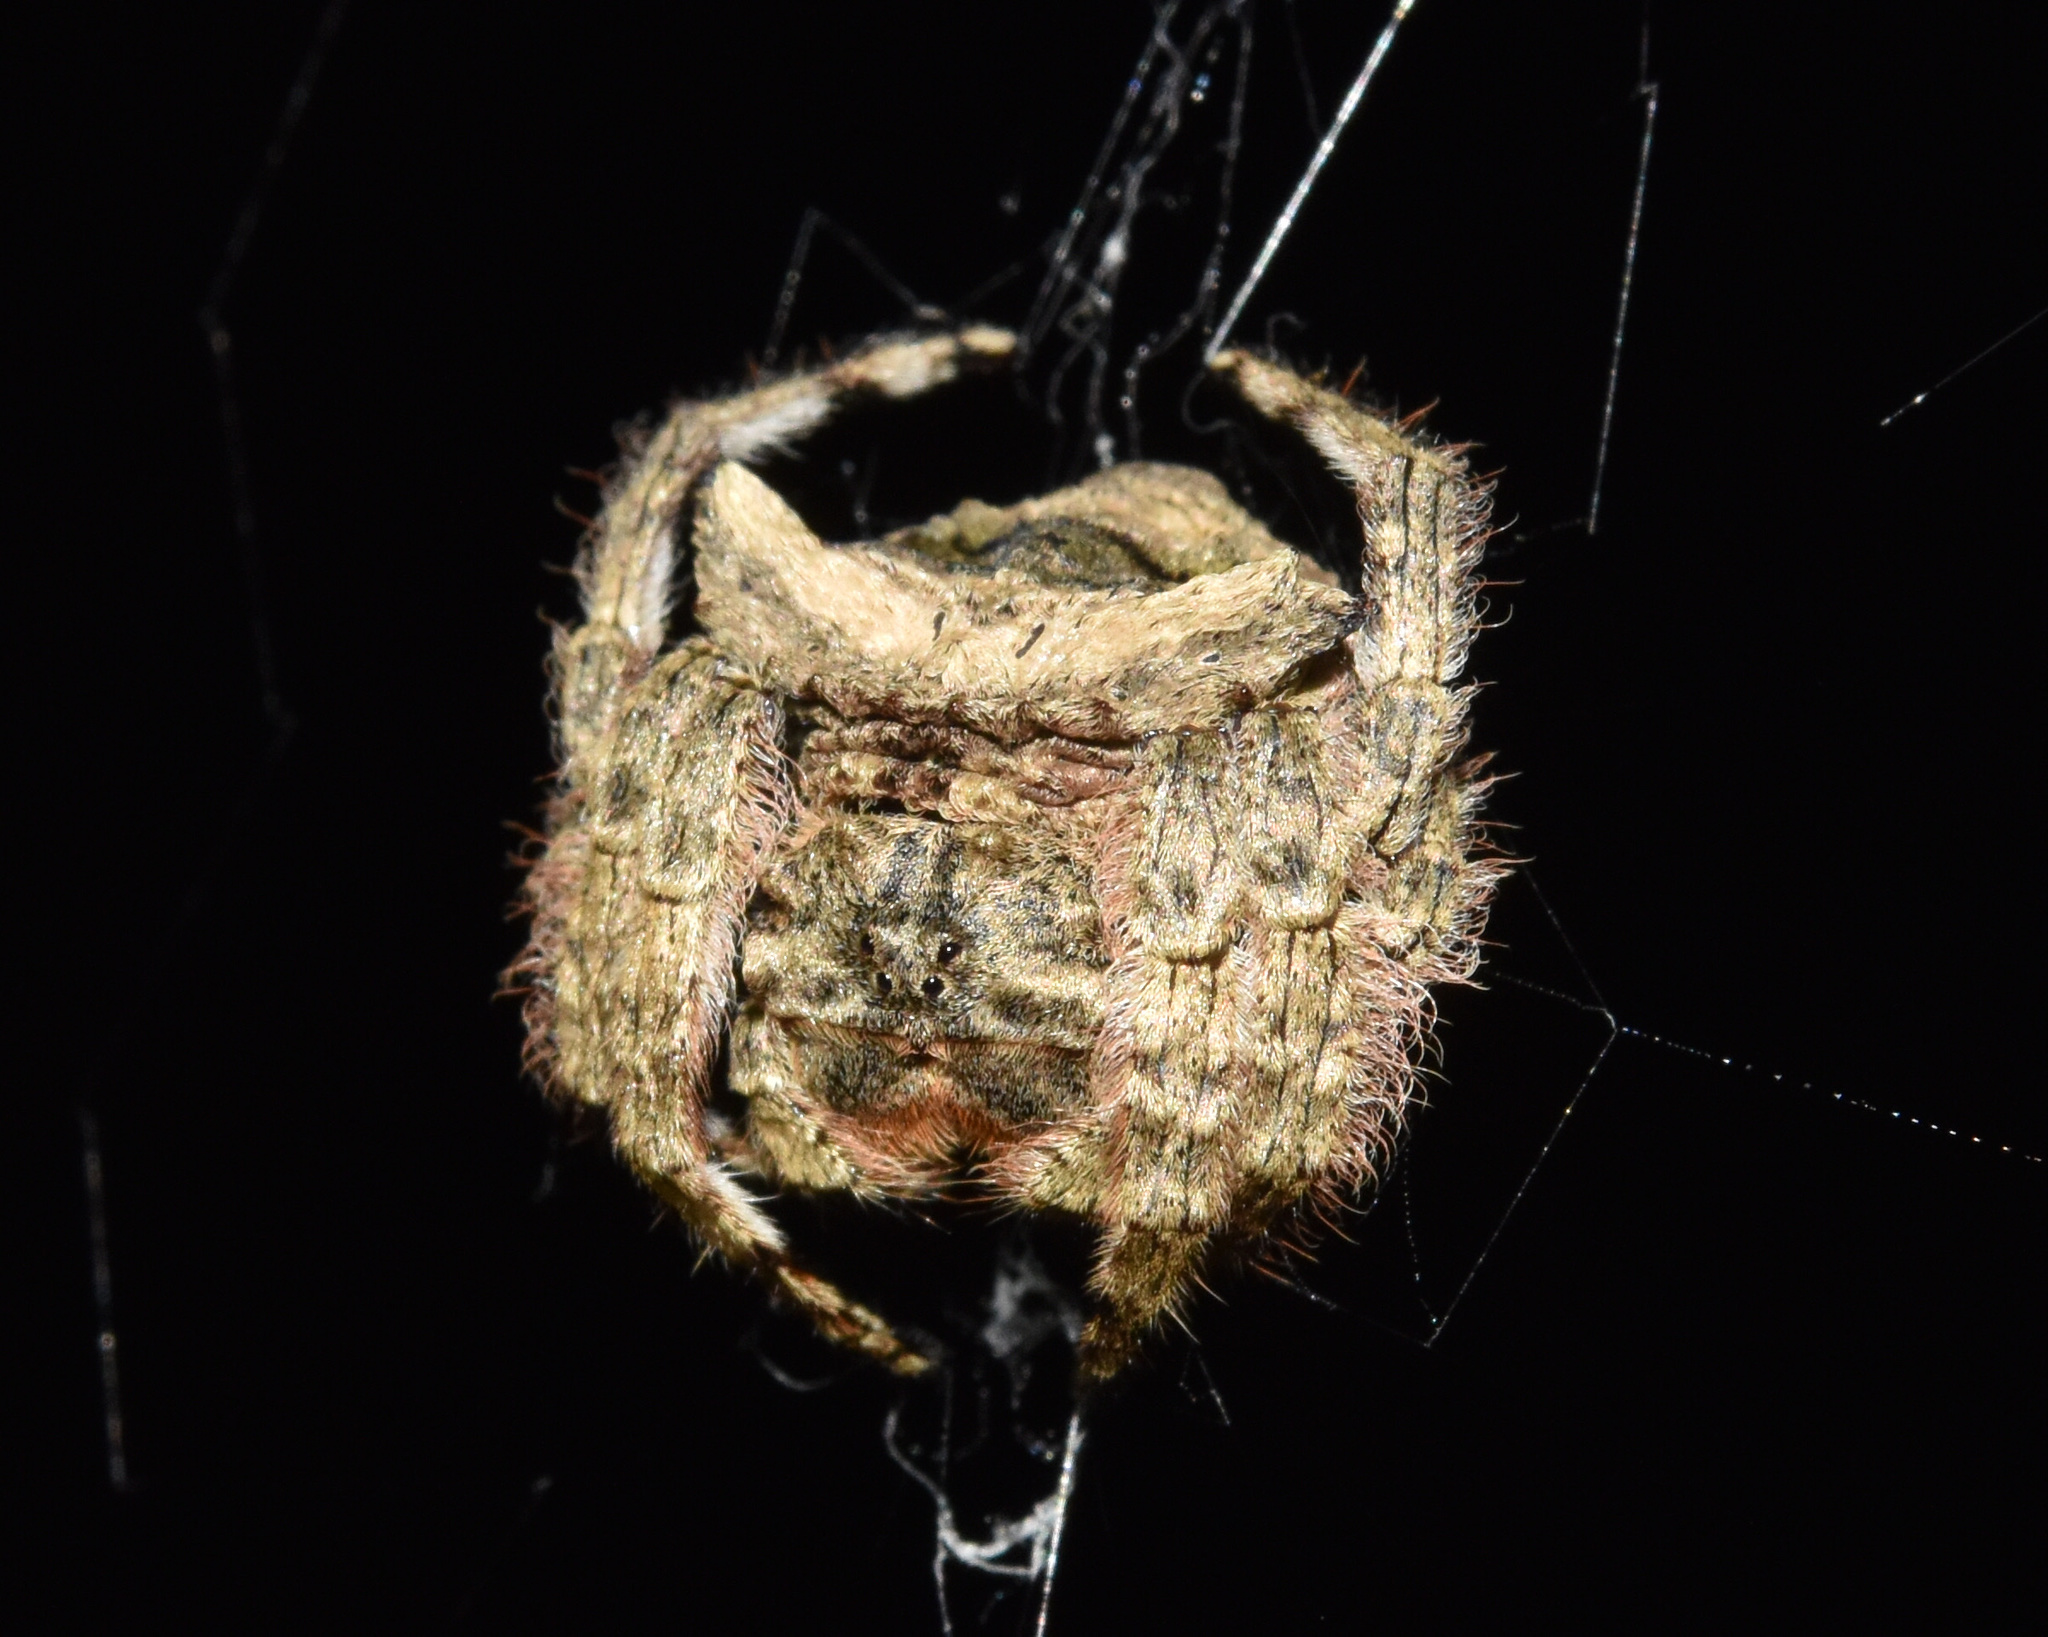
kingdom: Animalia
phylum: Arthropoda
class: Arachnida
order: Araneae
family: Araneidae
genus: Caerostris
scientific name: Caerostris sexcuspidata
